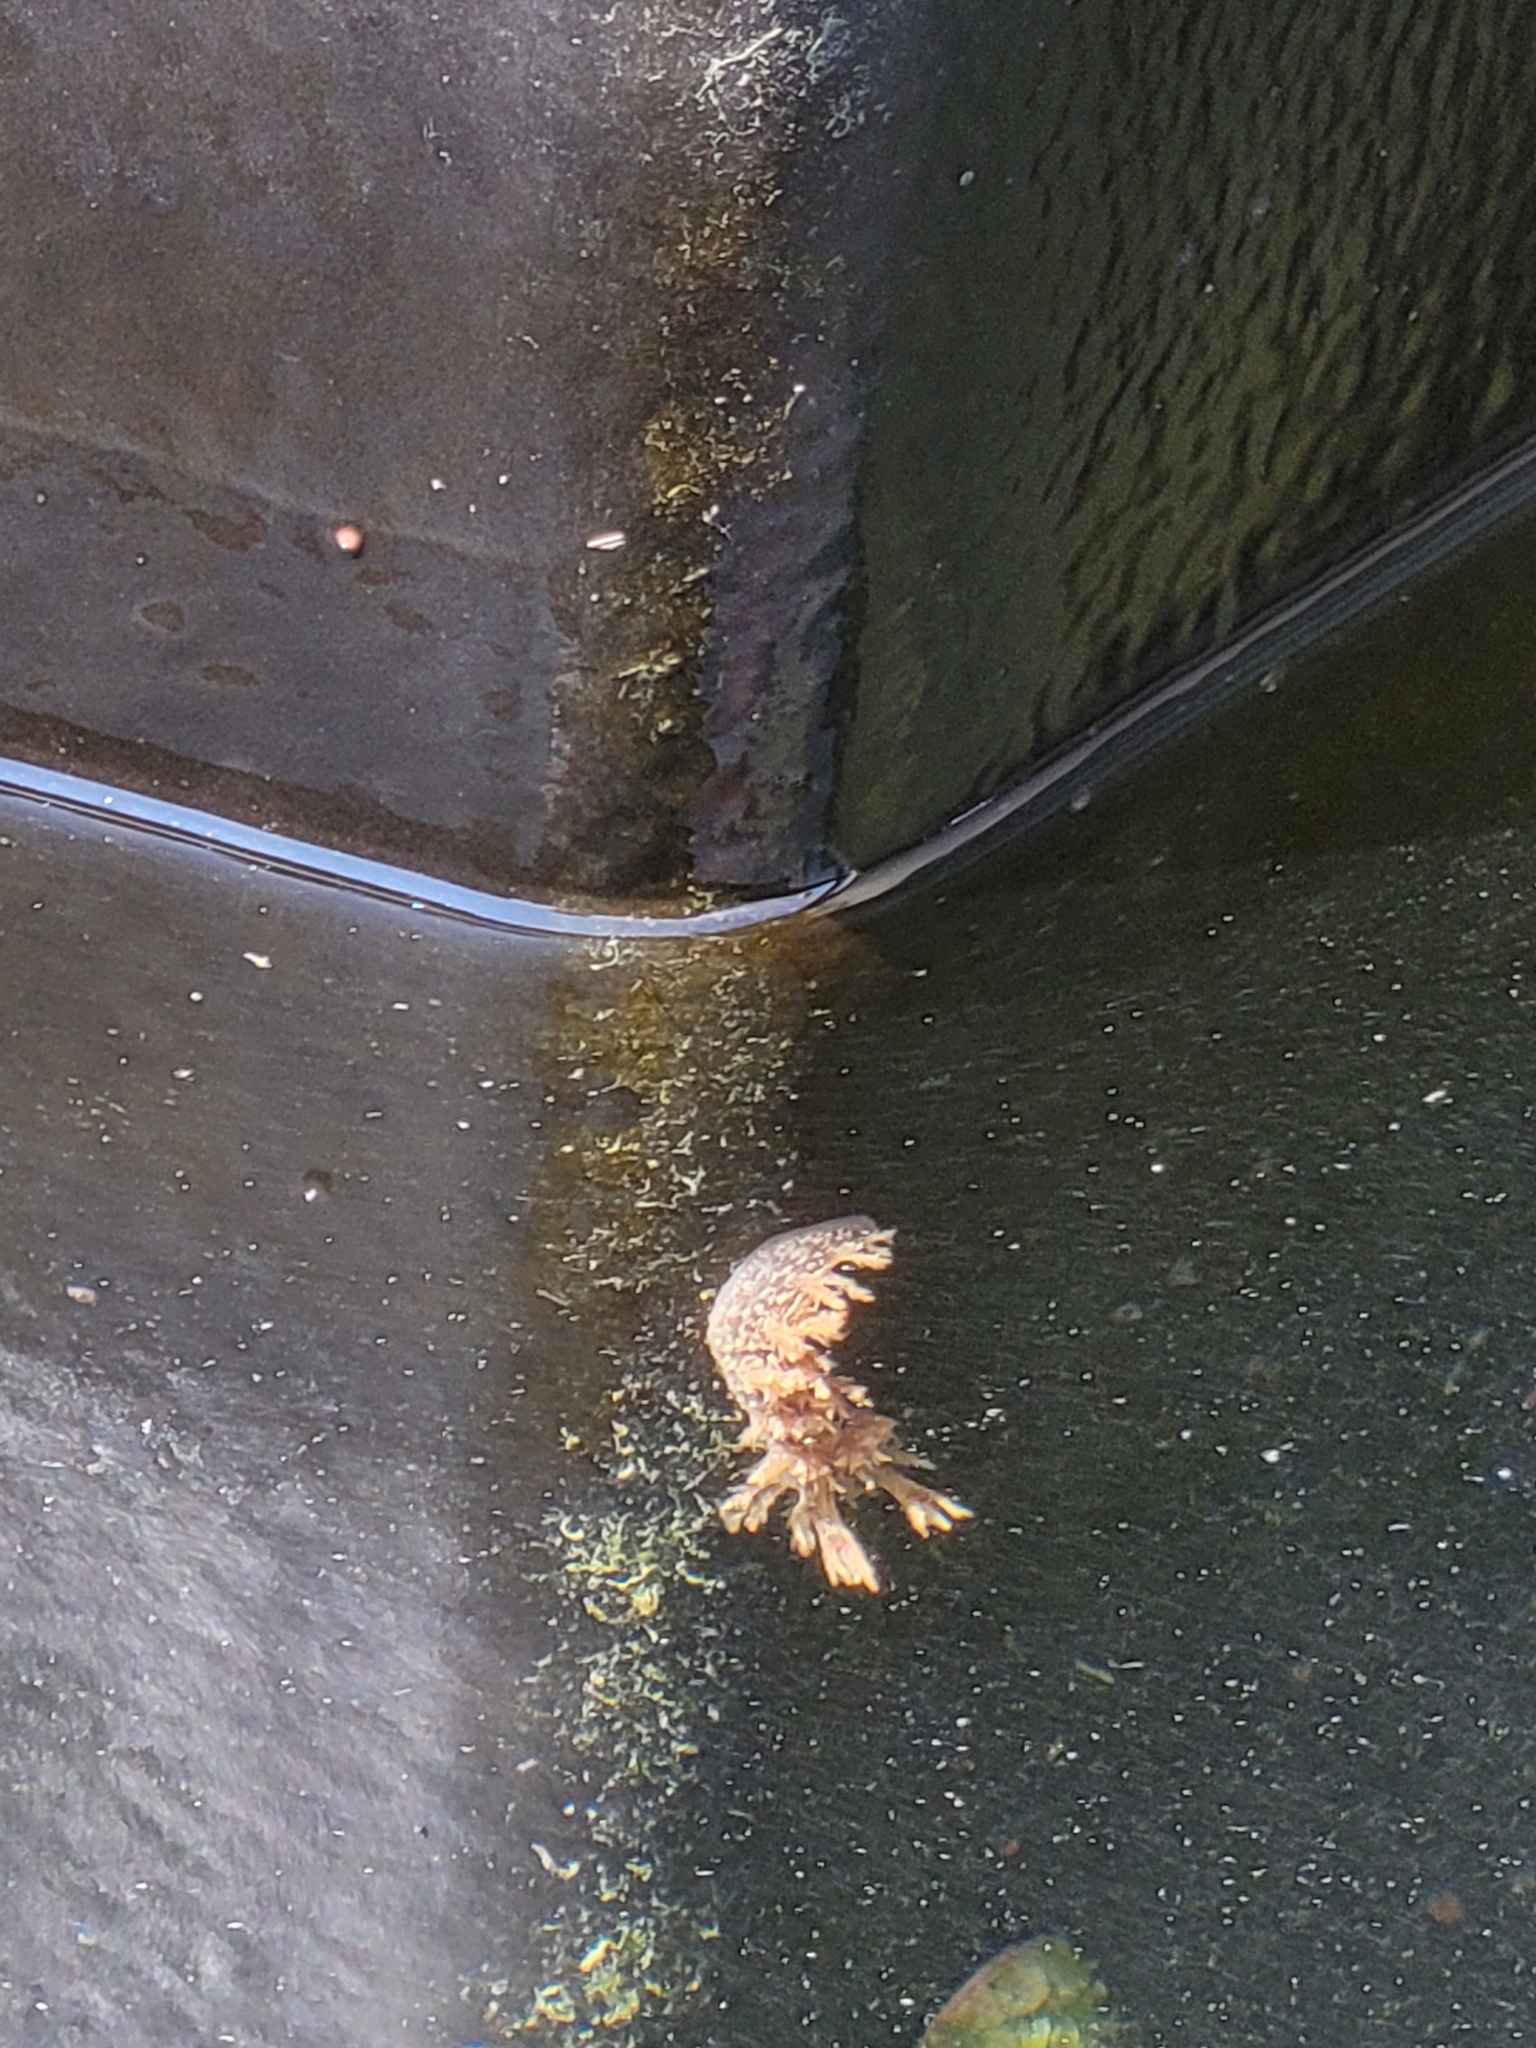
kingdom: Animalia
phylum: Mollusca
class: Gastropoda
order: Nudibranchia
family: Dendronotidae
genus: Dendronotus
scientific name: Dendronotus frondosus
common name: Bushy-backed nudibranch
